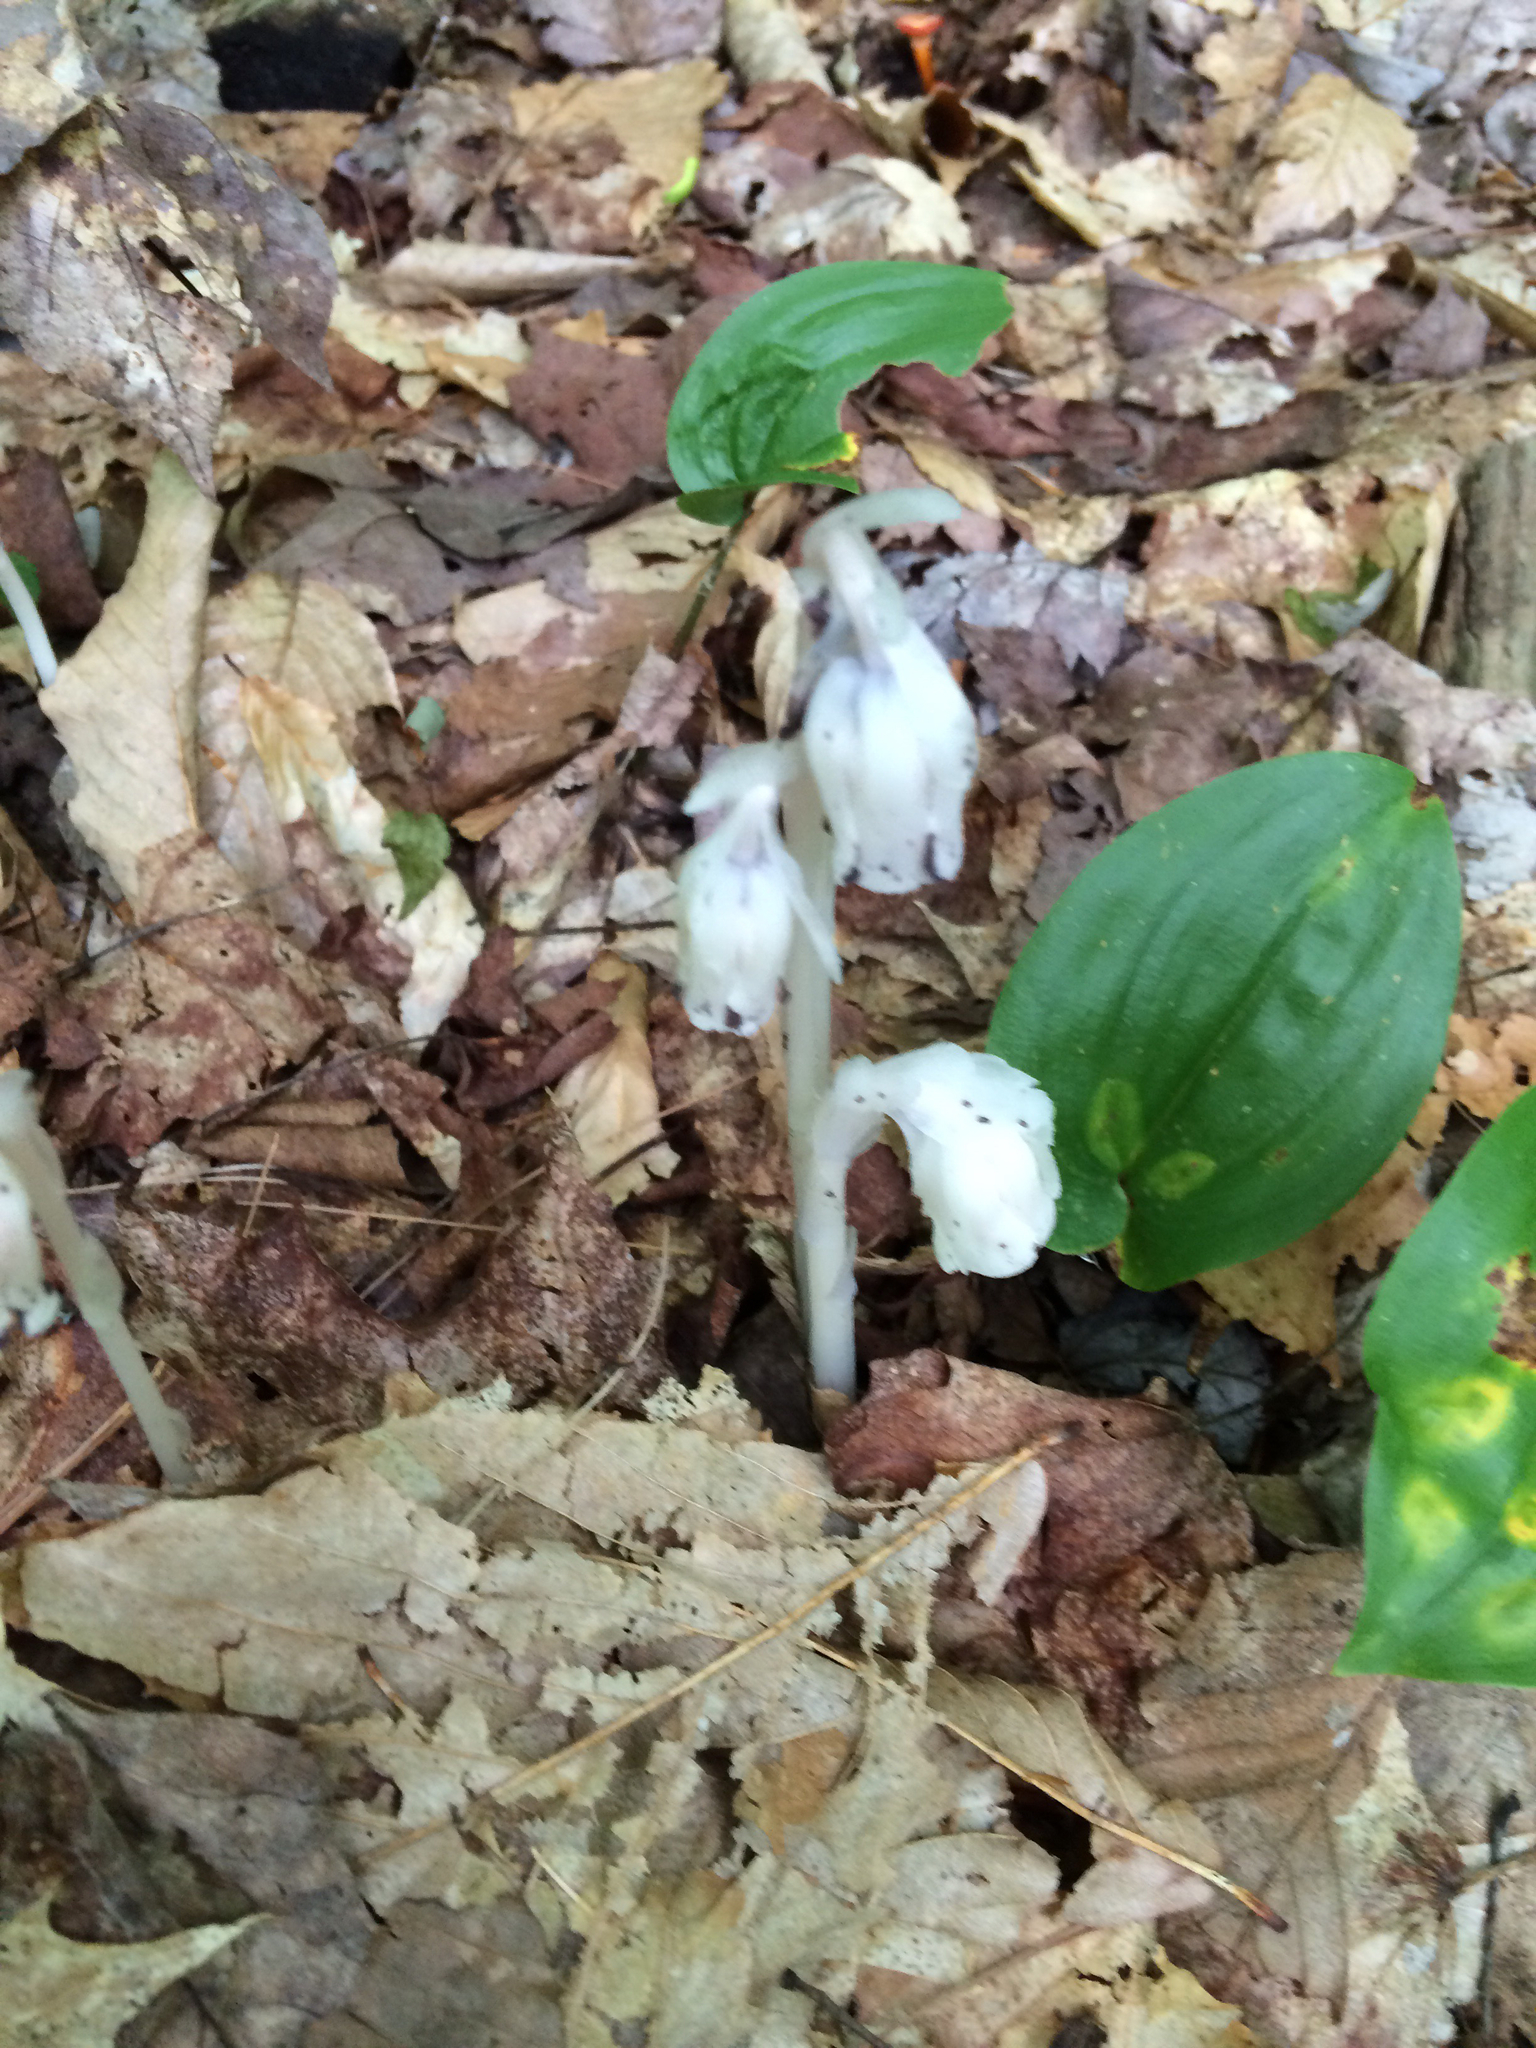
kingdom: Plantae
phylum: Tracheophyta
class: Magnoliopsida
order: Ericales
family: Ericaceae
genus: Monotropa
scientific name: Monotropa uniflora
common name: Convulsion root
